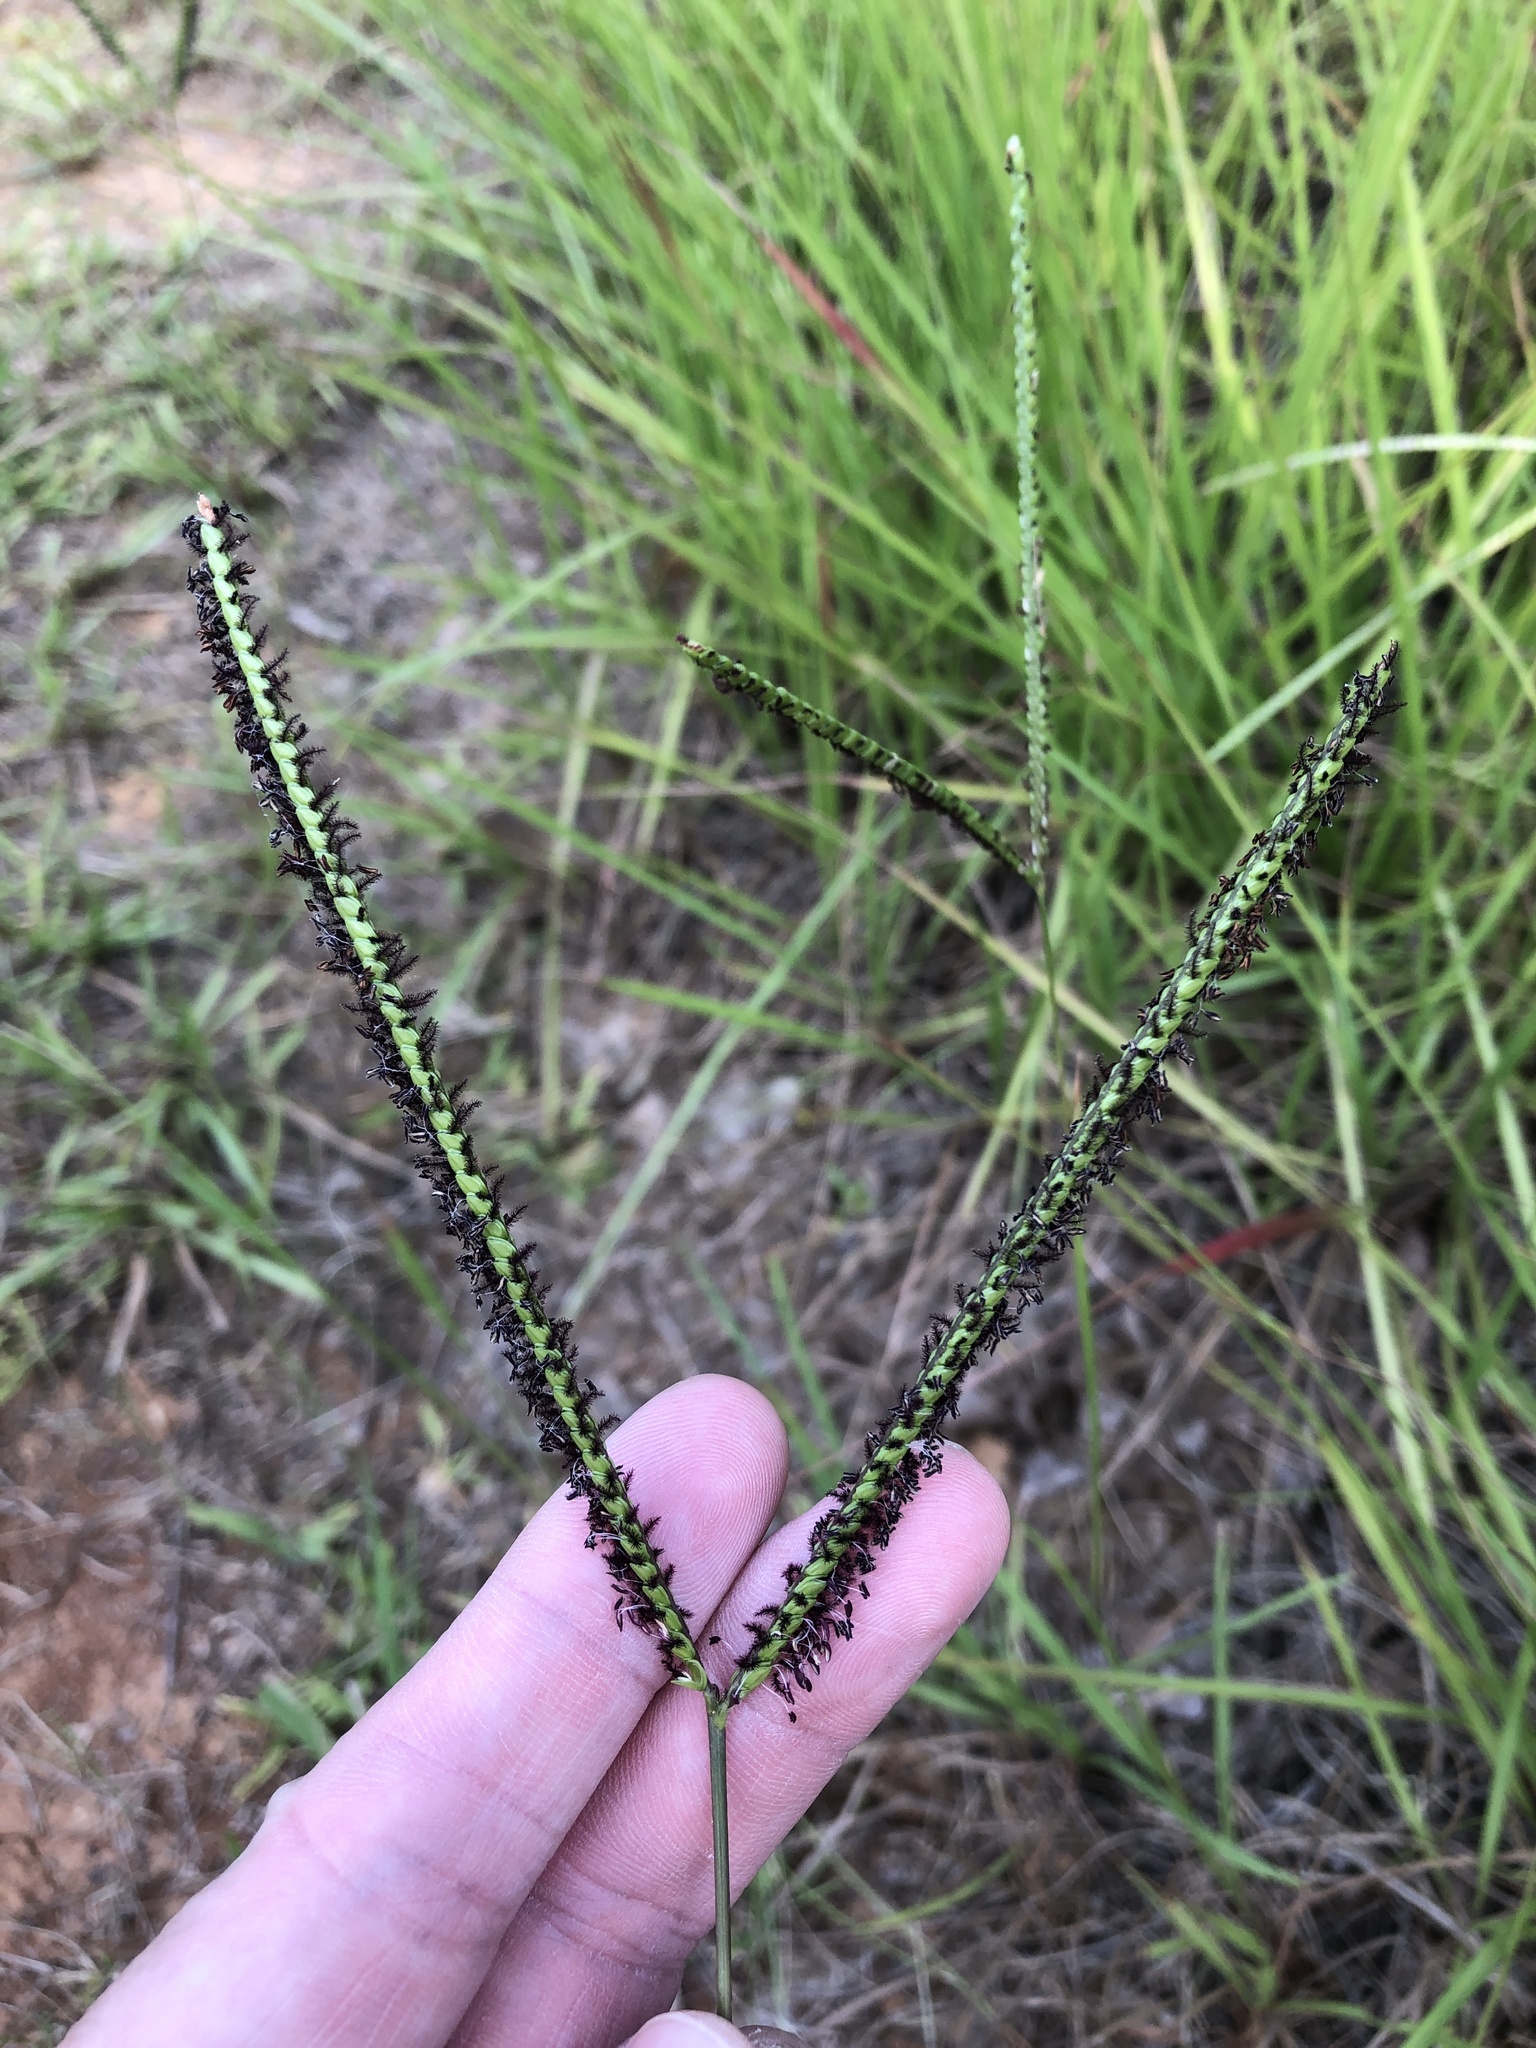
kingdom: Plantae
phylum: Tracheophyta
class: Liliopsida
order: Poales
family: Poaceae
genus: Paspalum
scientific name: Paspalum notatum
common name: Bahiagrass
